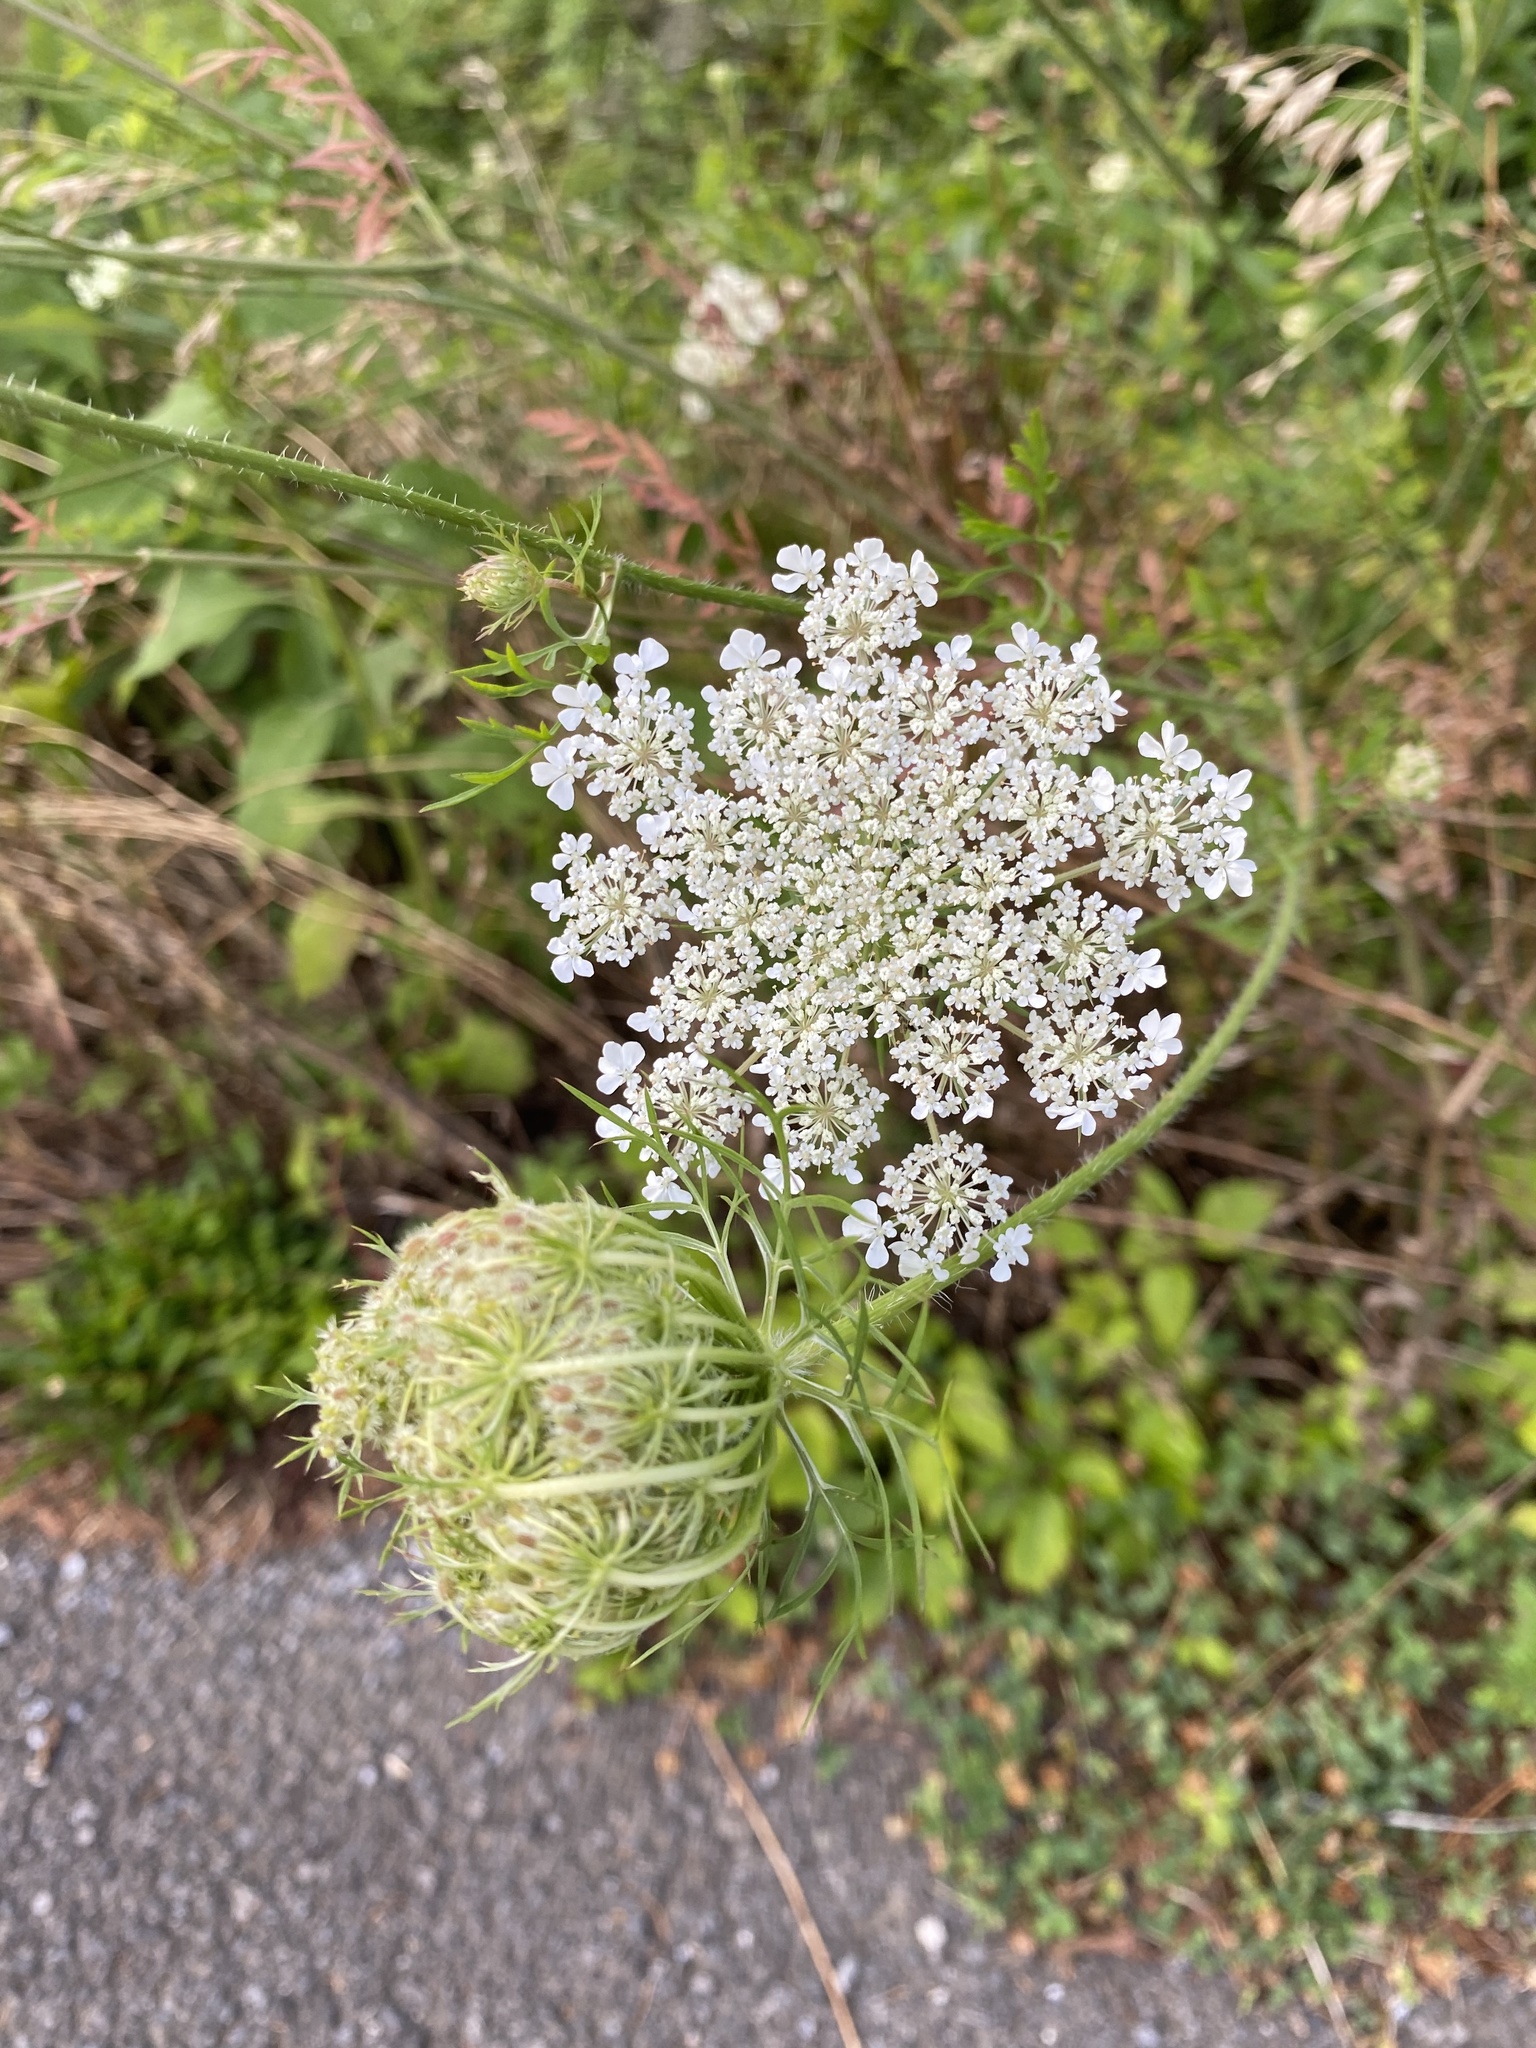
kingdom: Plantae
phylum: Tracheophyta
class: Magnoliopsida
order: Apiales
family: Apiaceae
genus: Daucus
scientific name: Daucus carota
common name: Wild carrot
